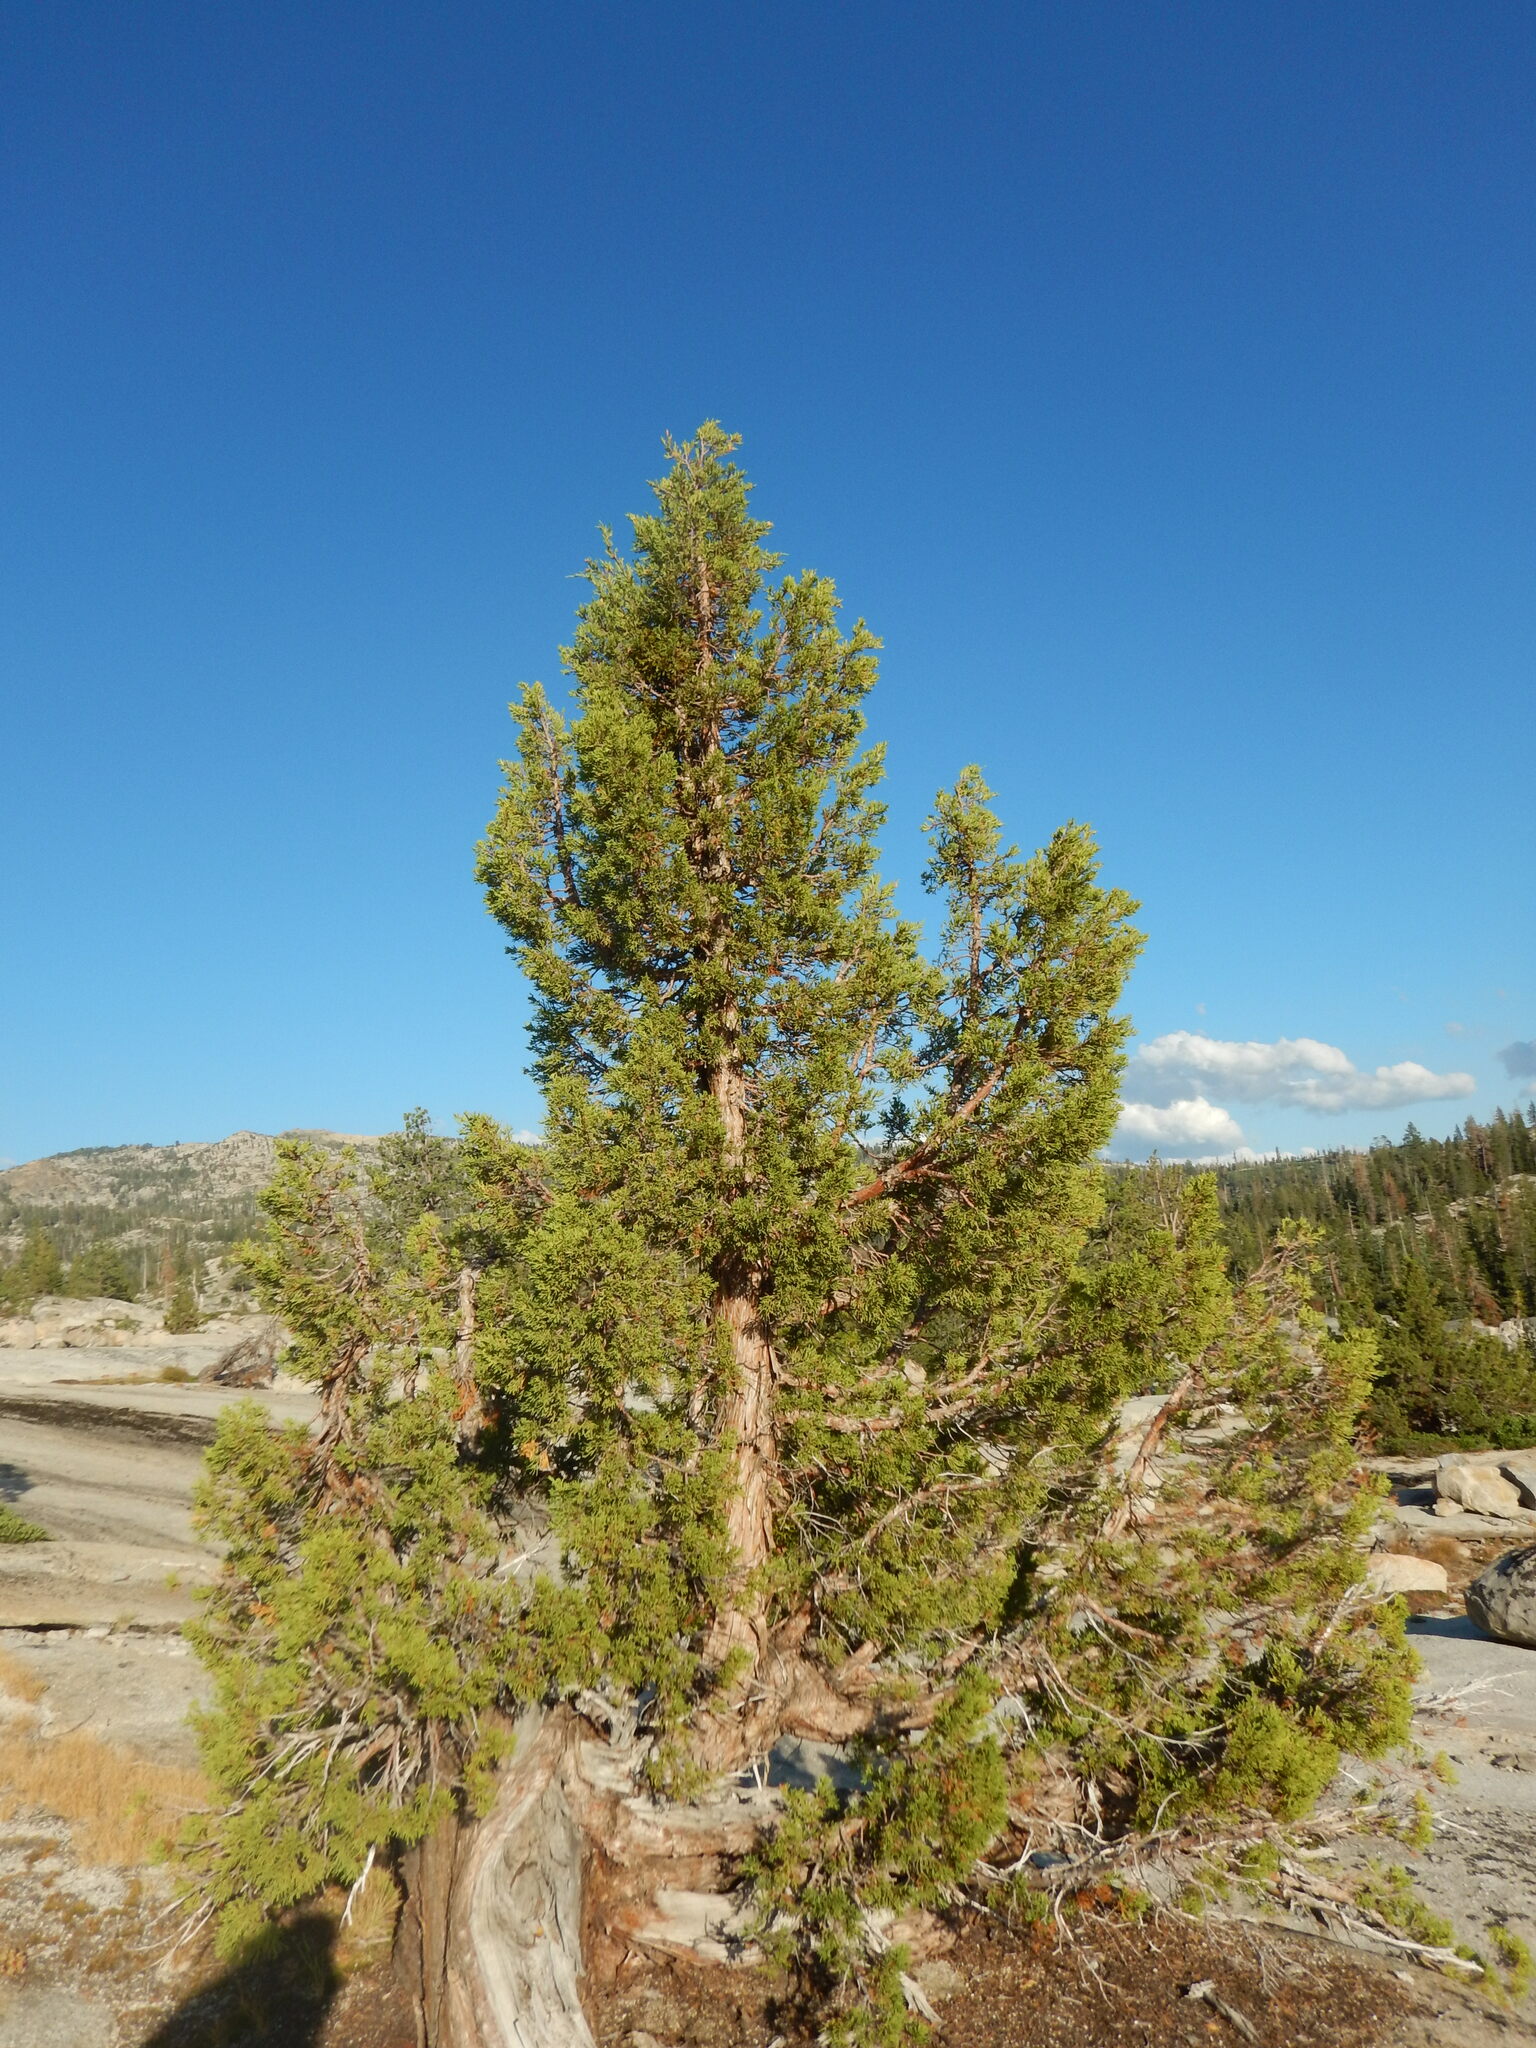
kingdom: Plantae
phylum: Tracheophyta
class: Pinopsida
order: Pinales
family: Cupressaceae
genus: Juniperus
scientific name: Juniperus occidentalis
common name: Western juniper
